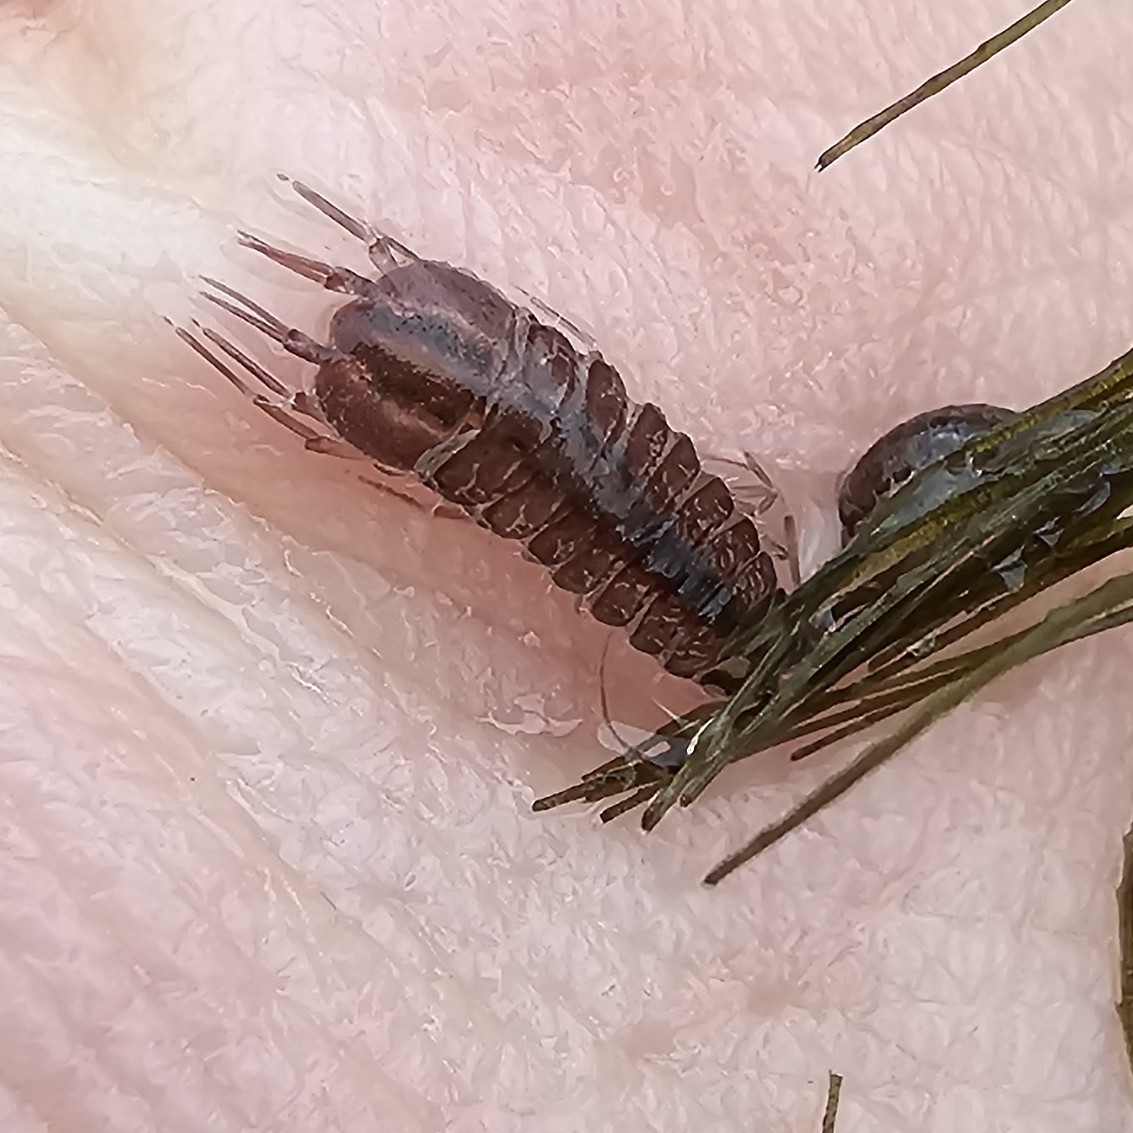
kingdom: Animalia
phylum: Arthropoda
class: Malacostraca
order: Isopoda
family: Asellidae
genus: Asellus
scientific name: Asellus aquaticus
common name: Water hog lice/slaters
